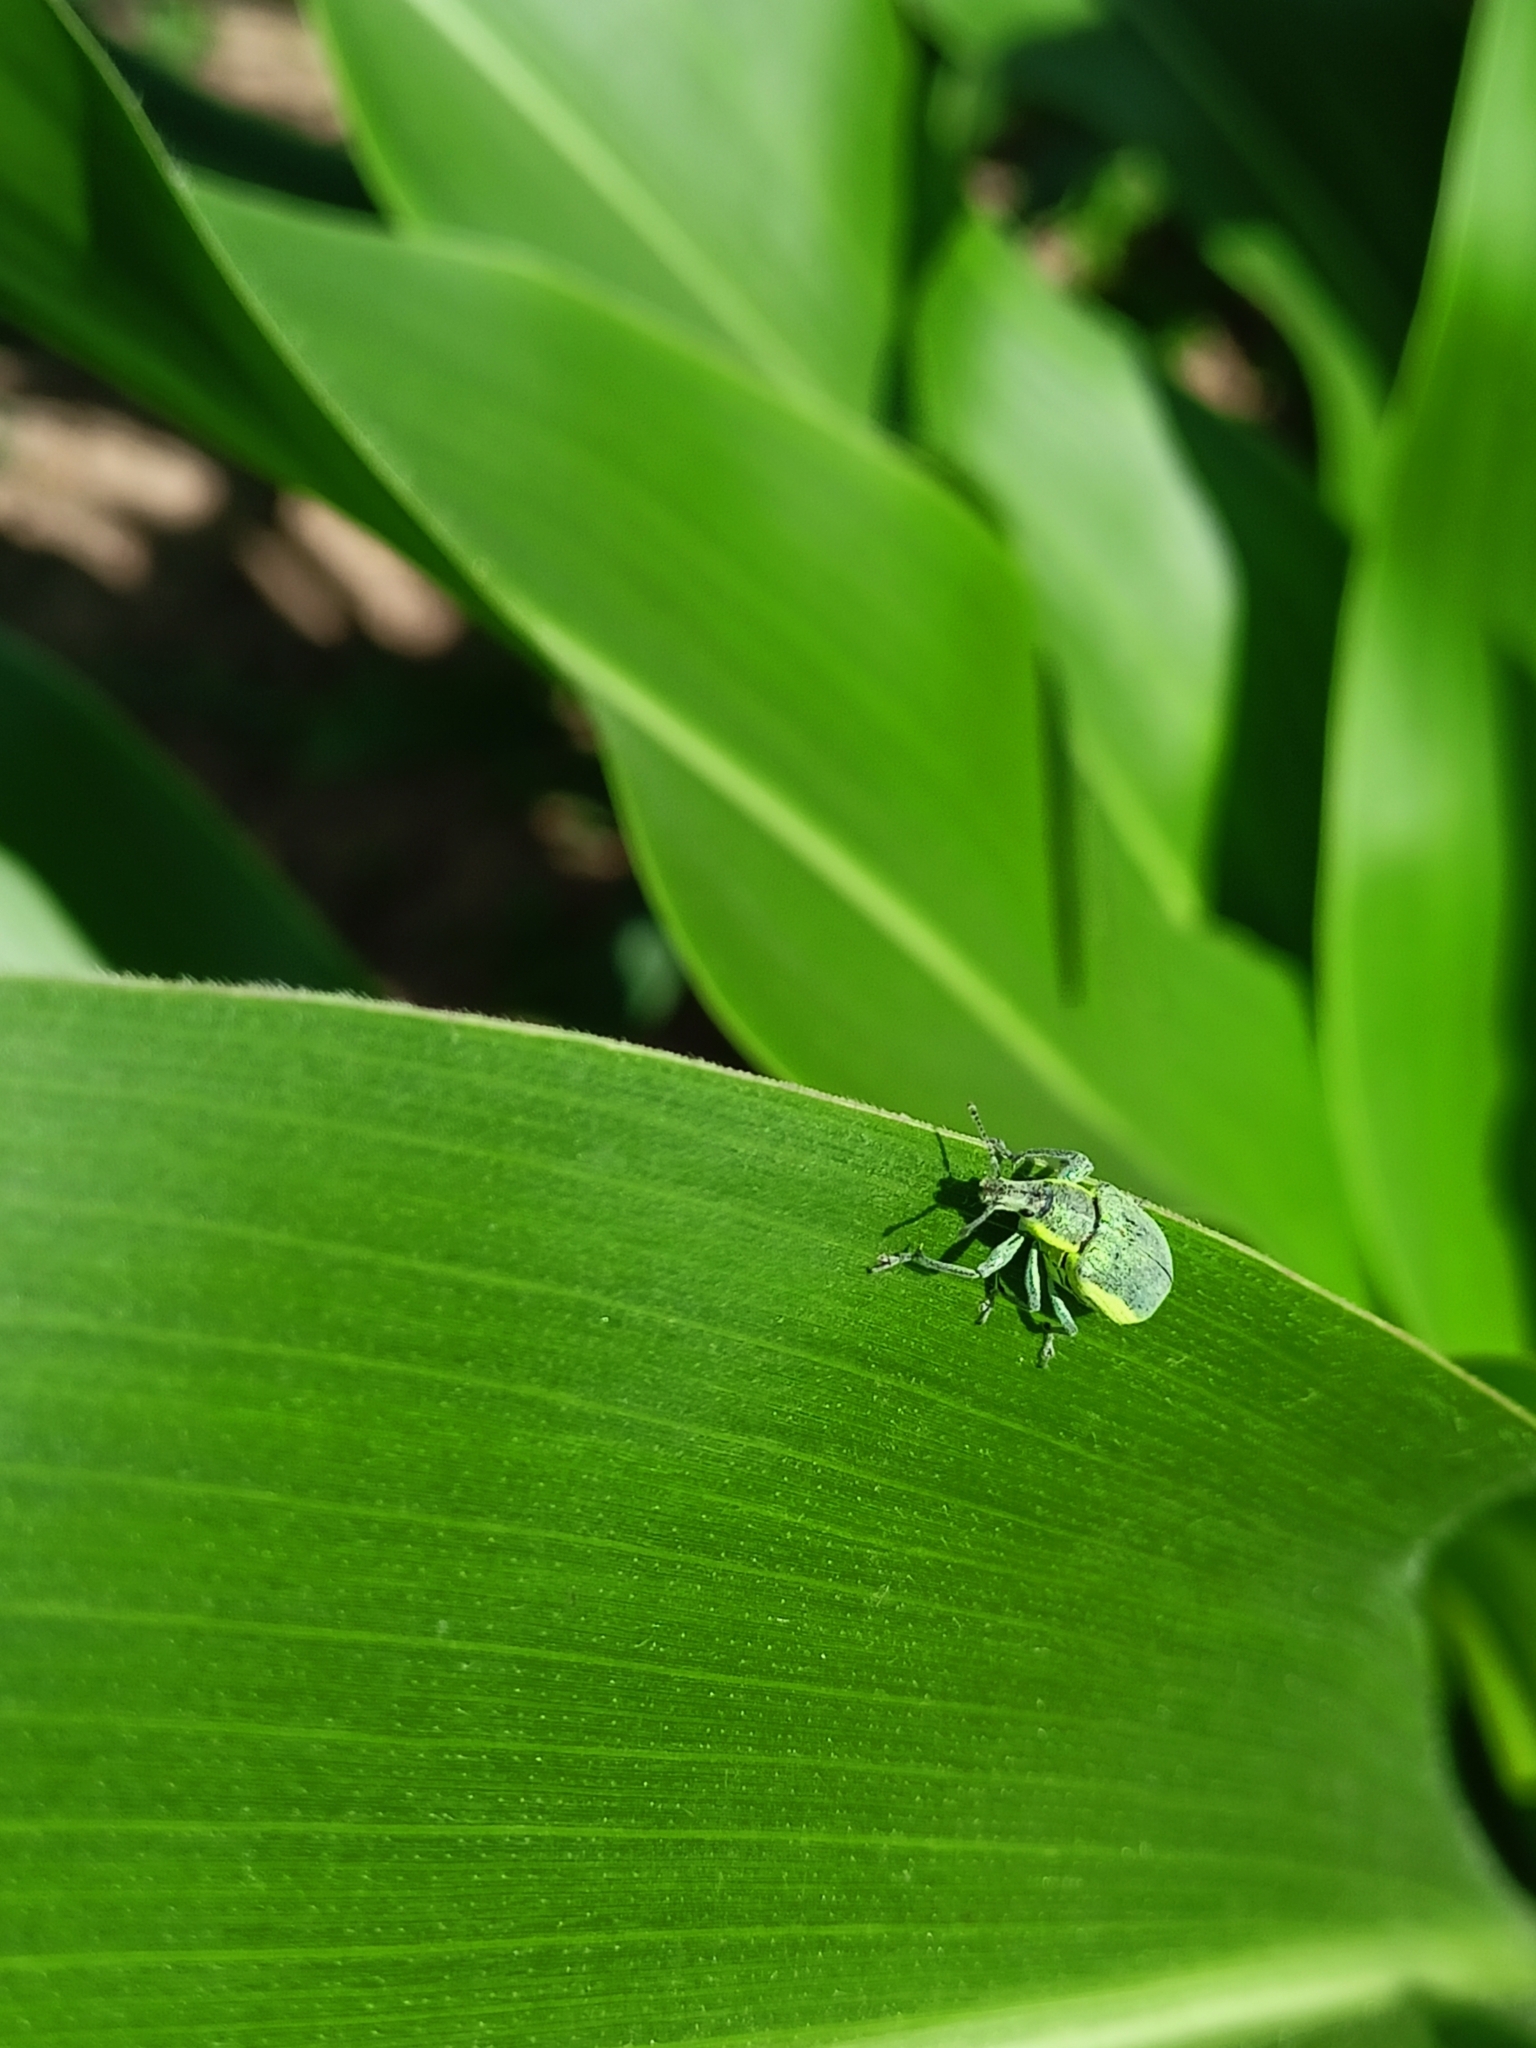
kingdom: Animalia
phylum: Arthropoda
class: Insecta
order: Coleoptera
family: Curculionidae
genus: Chlorophanus
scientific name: Chlorophanus viridis
